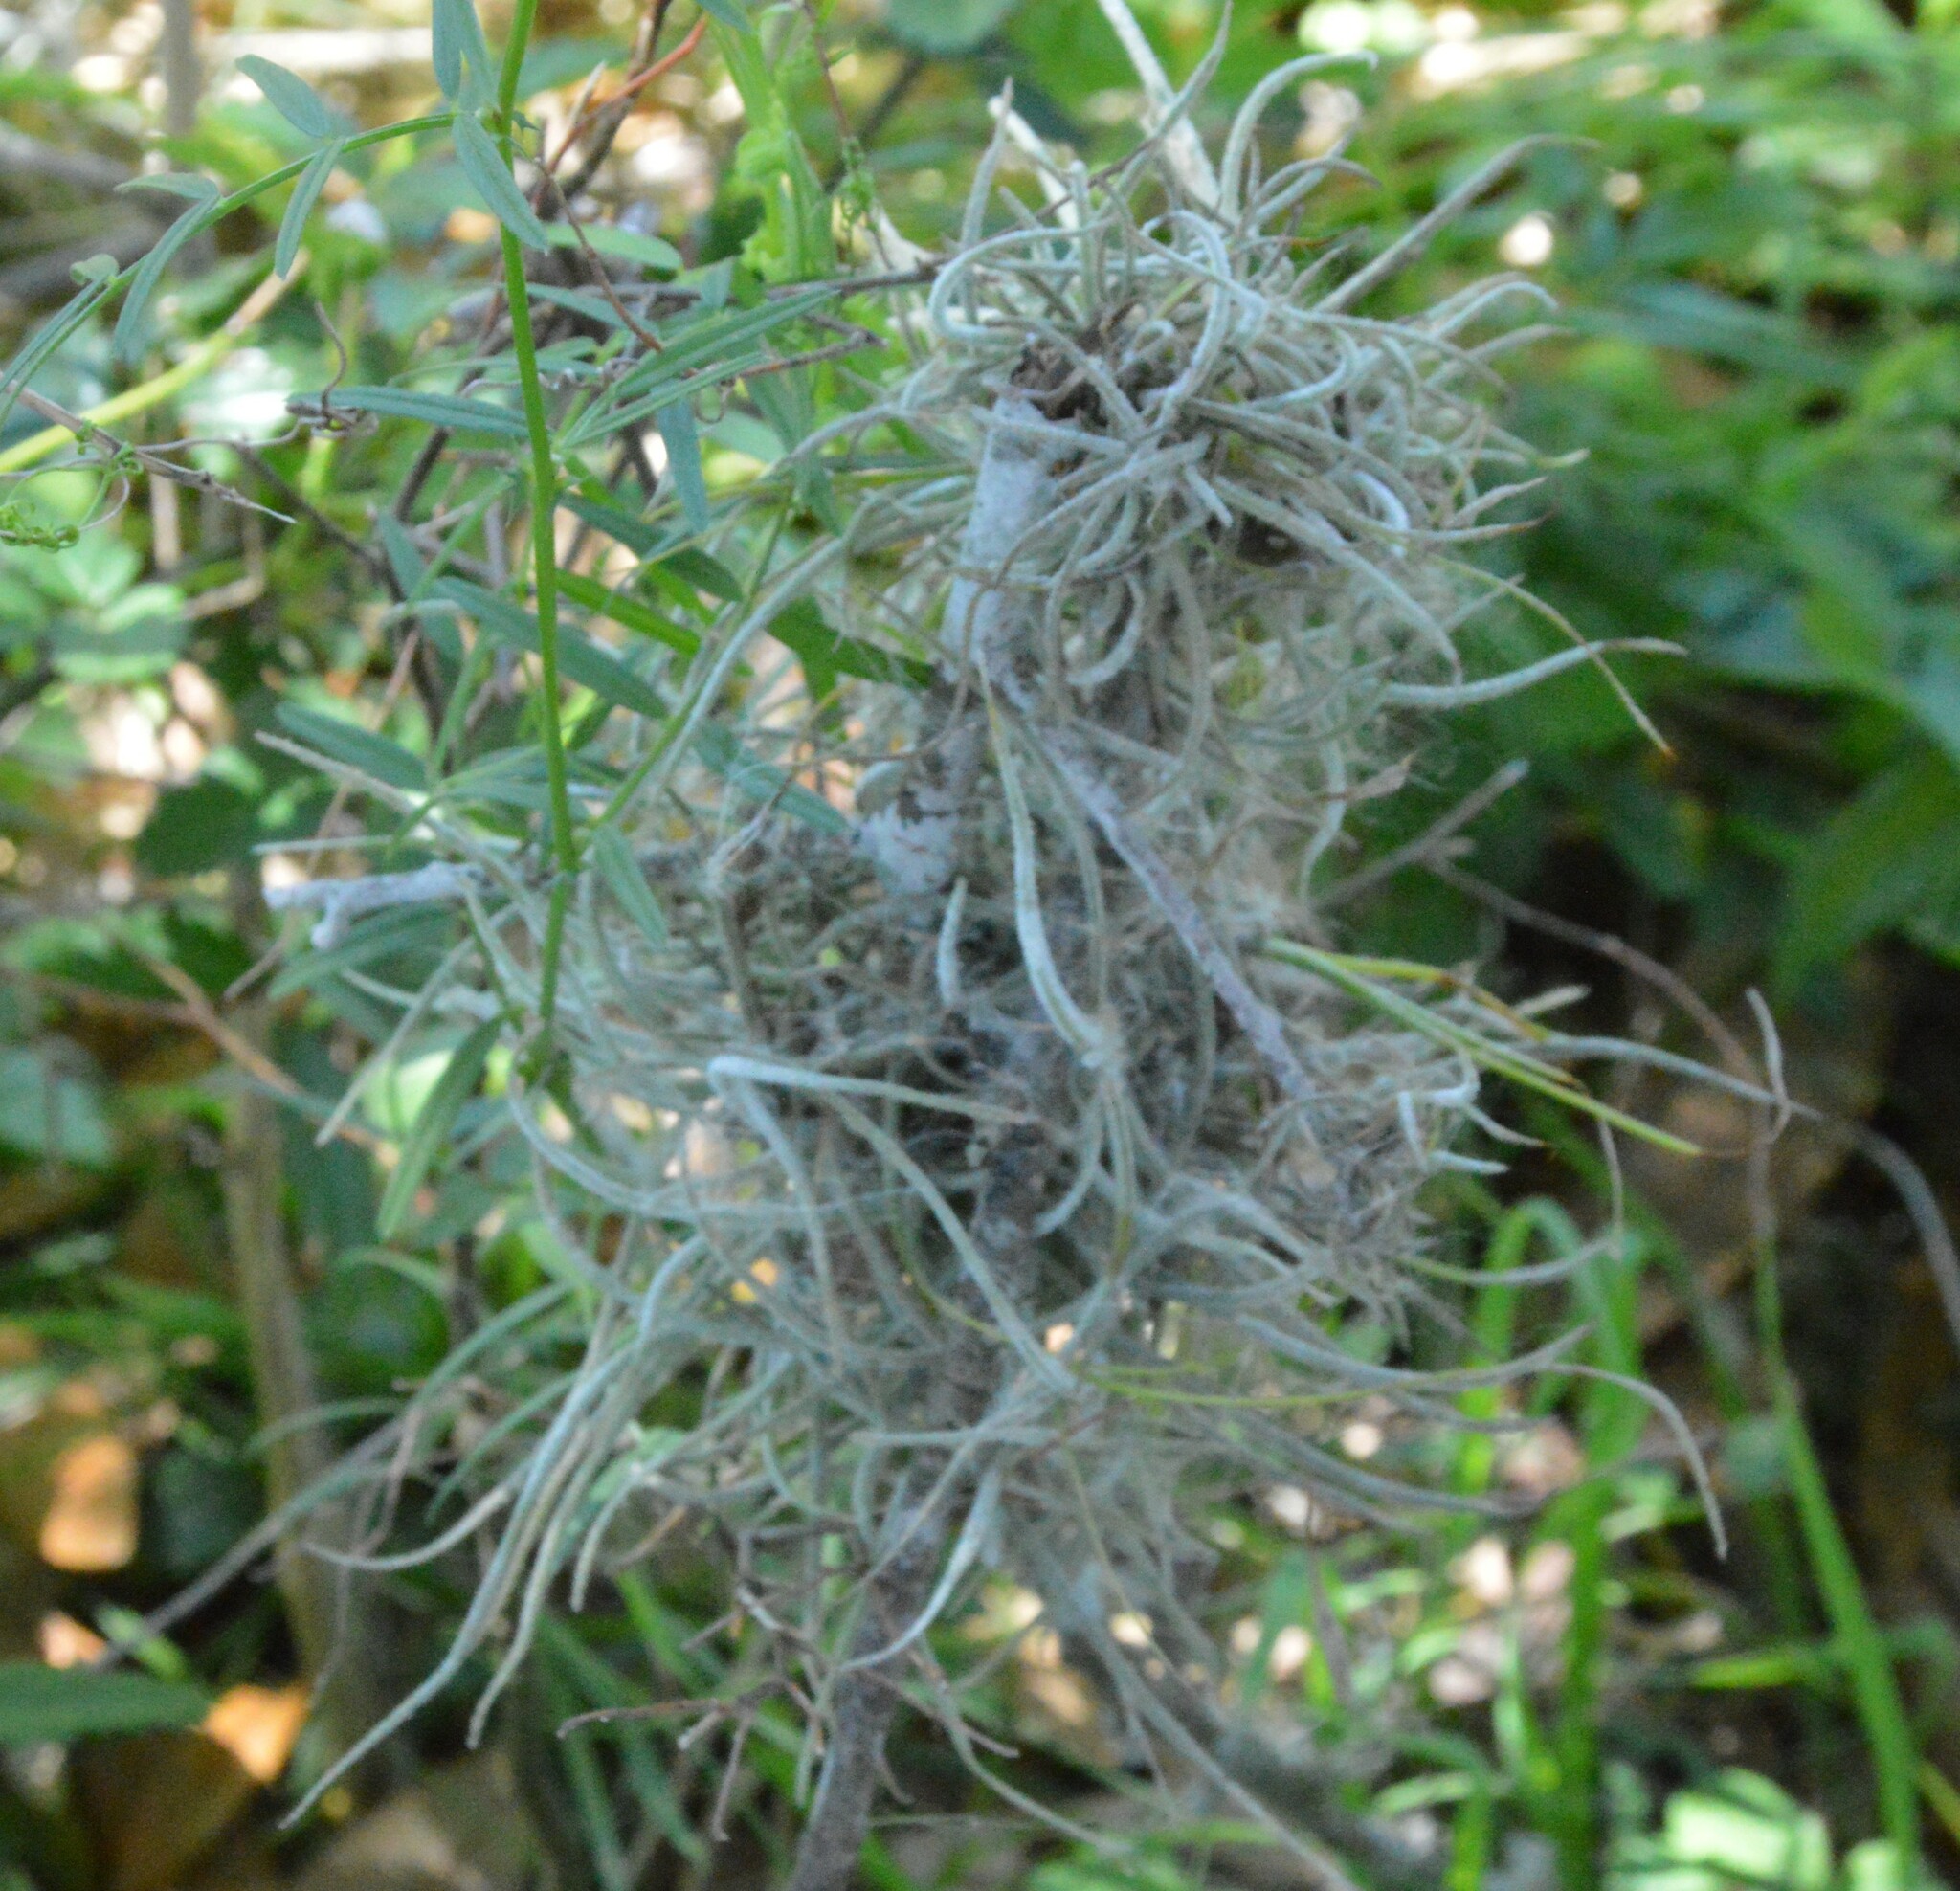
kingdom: Plantae
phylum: Tracheophyta
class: Liliopsida
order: Poales
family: Bromeliaceae
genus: Tillandsia
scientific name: Tillandsia recurvata
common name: Small ballmoss
